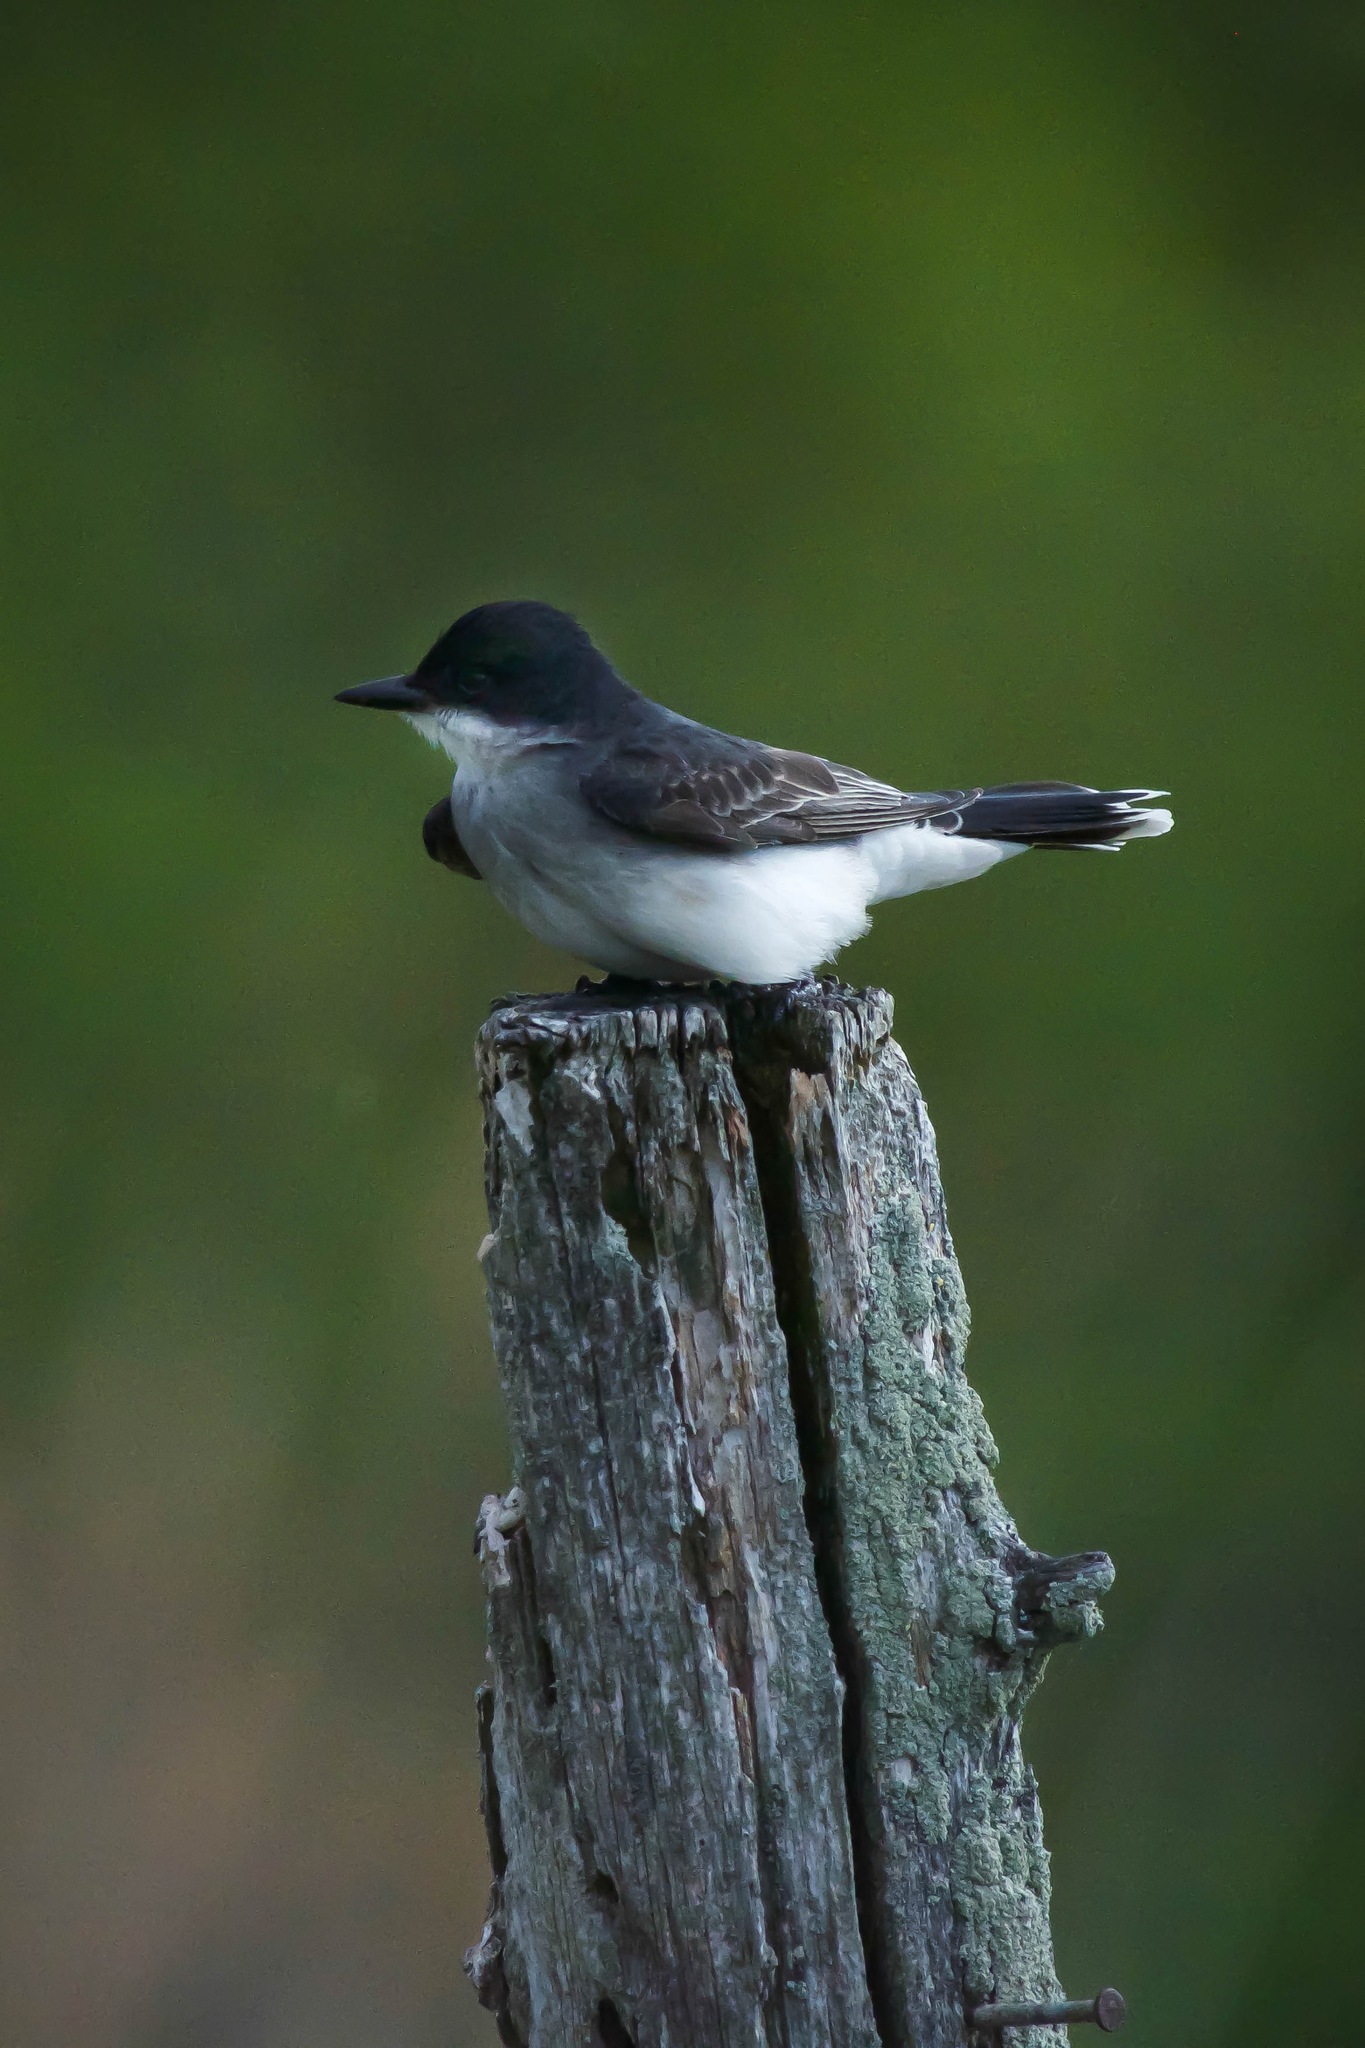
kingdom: Animalia
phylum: Chordata
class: Aves
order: Passeriformes
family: Tyrannidae
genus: Tyrannus
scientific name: Tyrannus tyrannus
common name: Eastern kingbird
